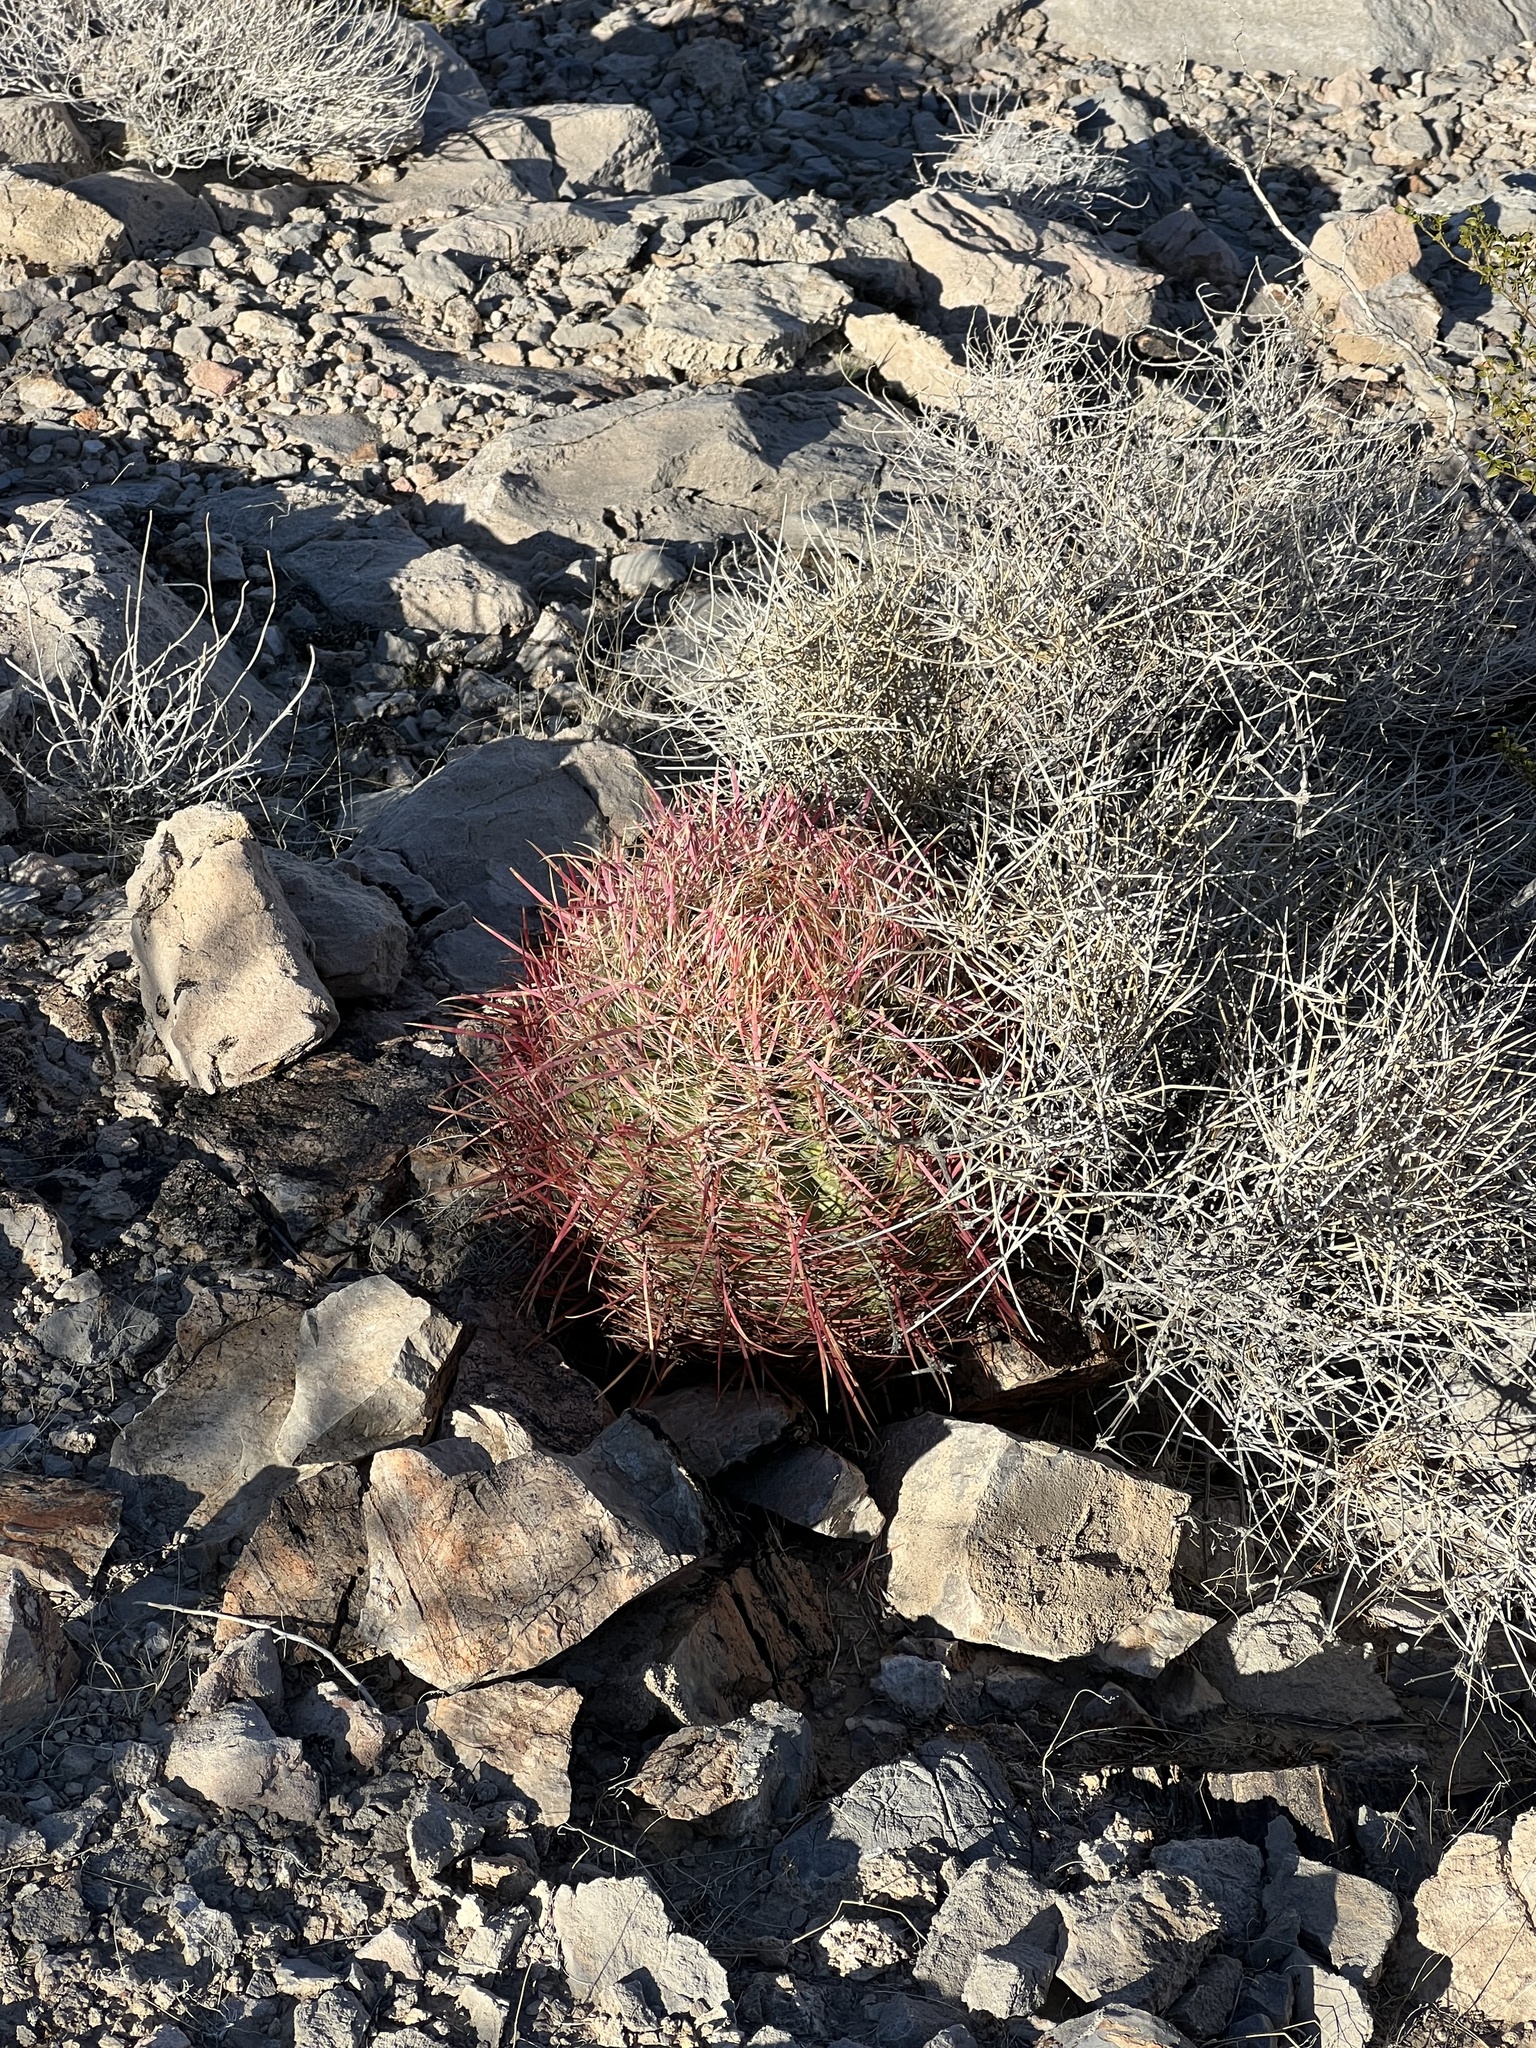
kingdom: Plantae
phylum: Tracheophyta
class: Magnoliopsida
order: Caryophyllales
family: Cactaceae
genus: Ferocactus
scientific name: Ferocactus cylindraceus
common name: California barrel cactus
